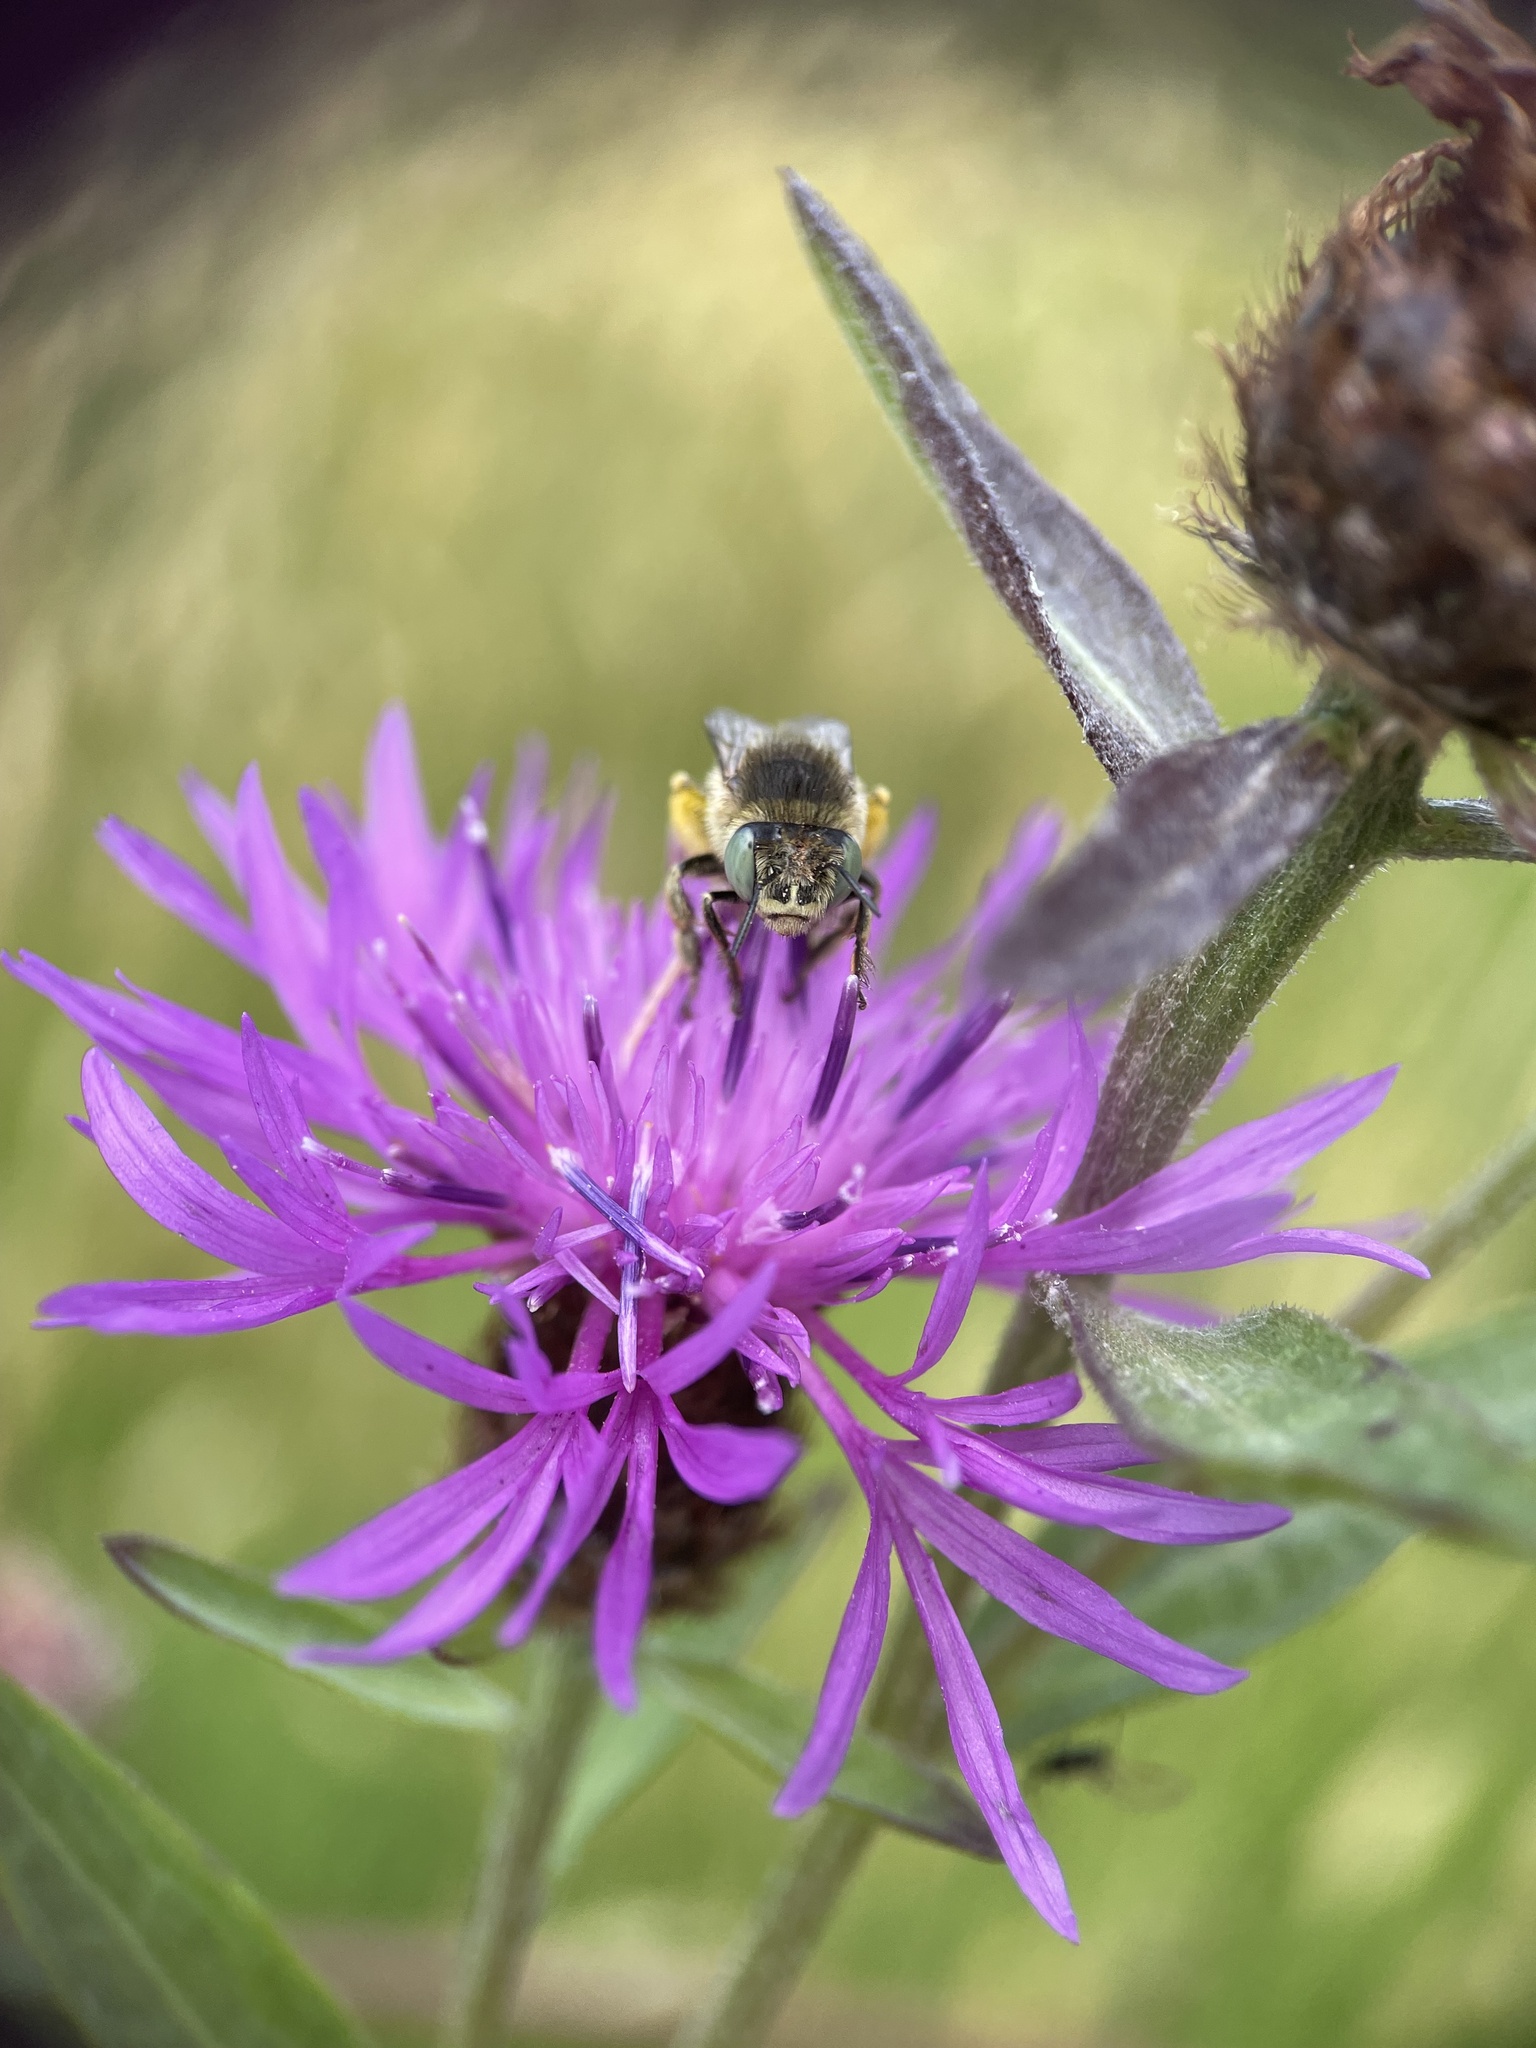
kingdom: Animalia
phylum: Arthropoda
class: Insecta
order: Hymenoptera
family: Apidae
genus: Anthophora
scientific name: Anthophora bimaculata
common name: Green-eyed flower bee
